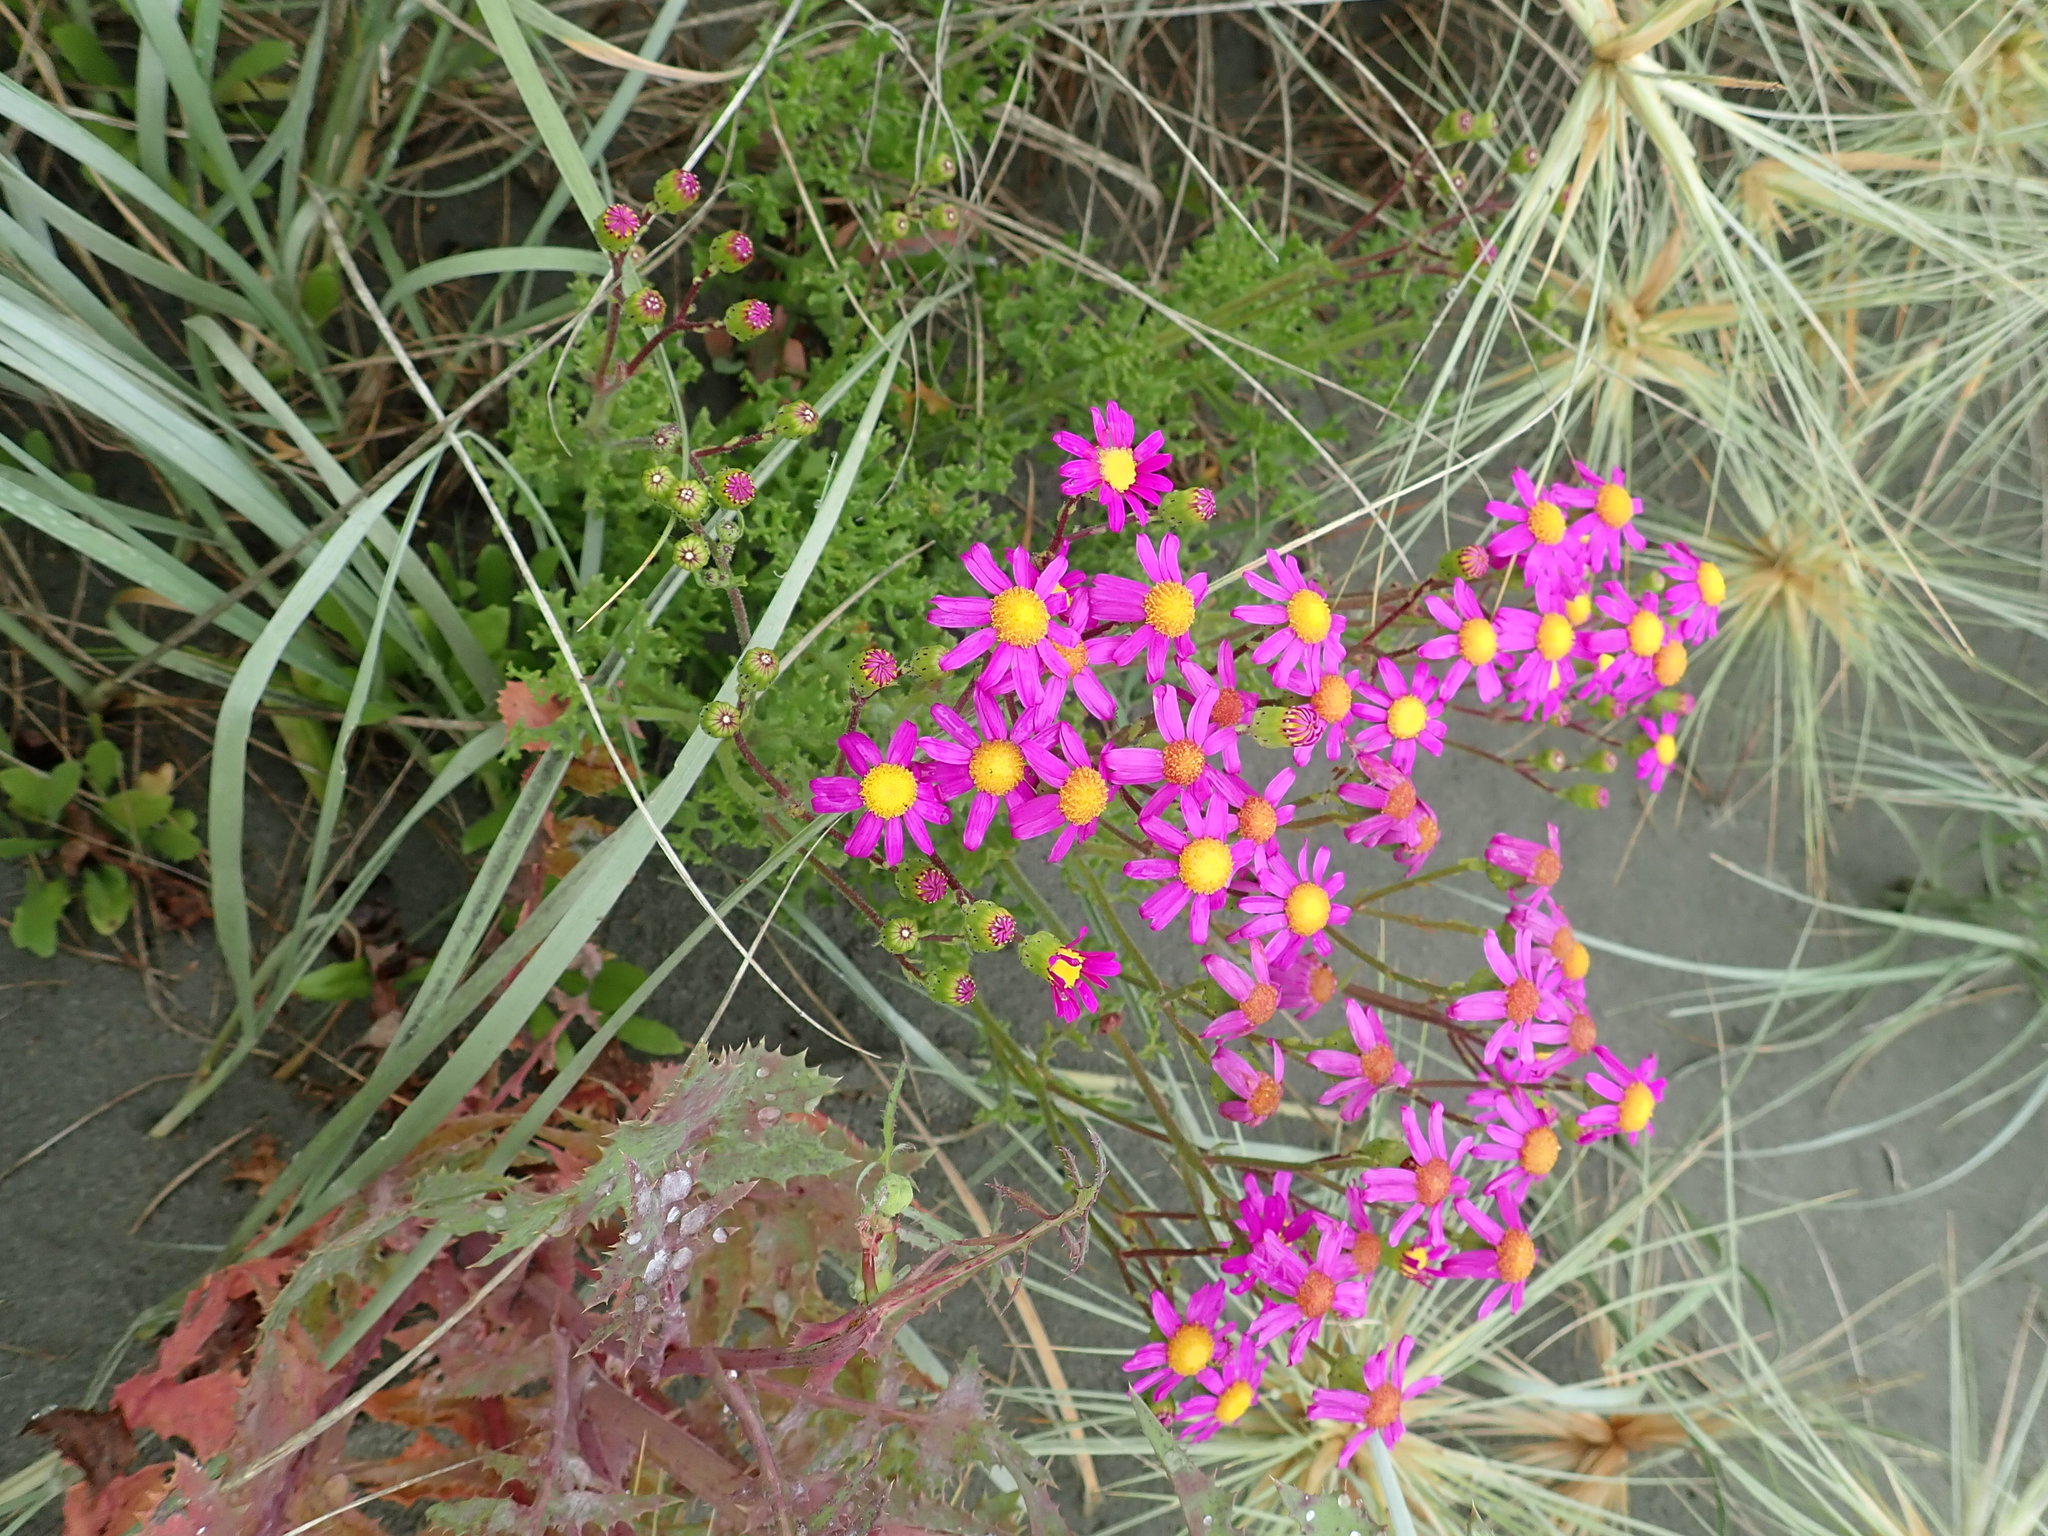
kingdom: Plantae
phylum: Tracheophyta
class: Magnoliopsida
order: Asterales
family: Asteraceae
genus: Senecio
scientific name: Senecio elegans
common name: Purple groundsel
